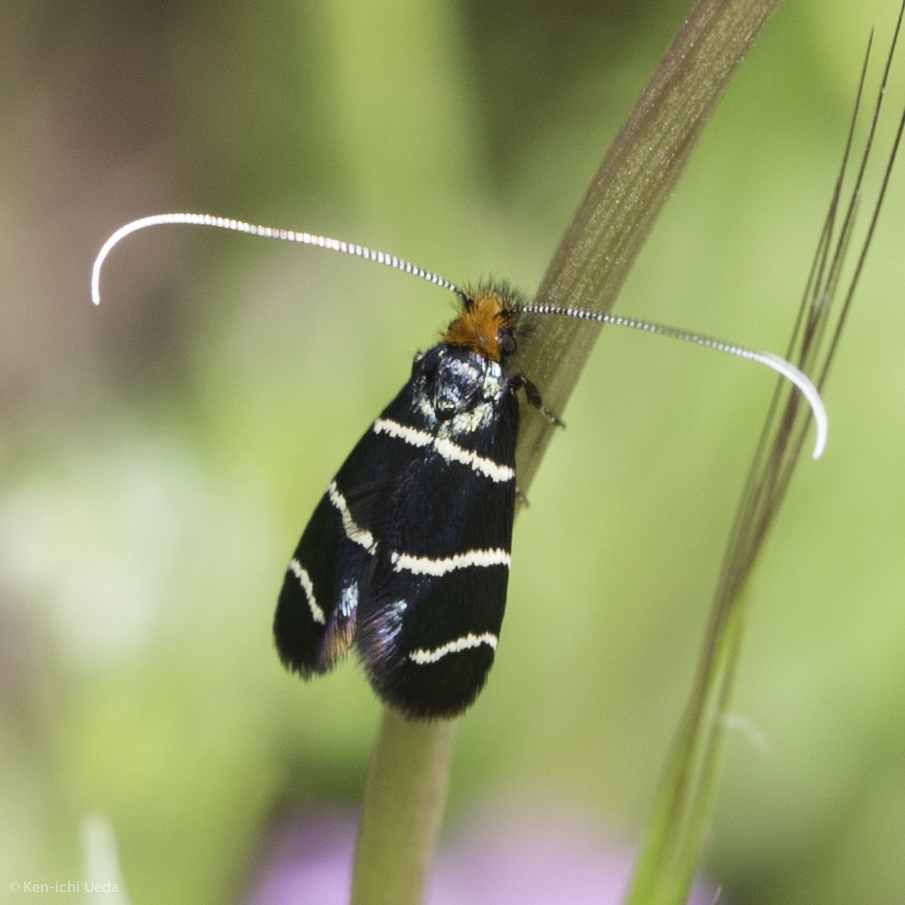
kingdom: Animalia
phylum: Arthropoda
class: Insecta
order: Lepidoptera
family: Adelidae
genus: Adela
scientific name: Adela trigrapha
